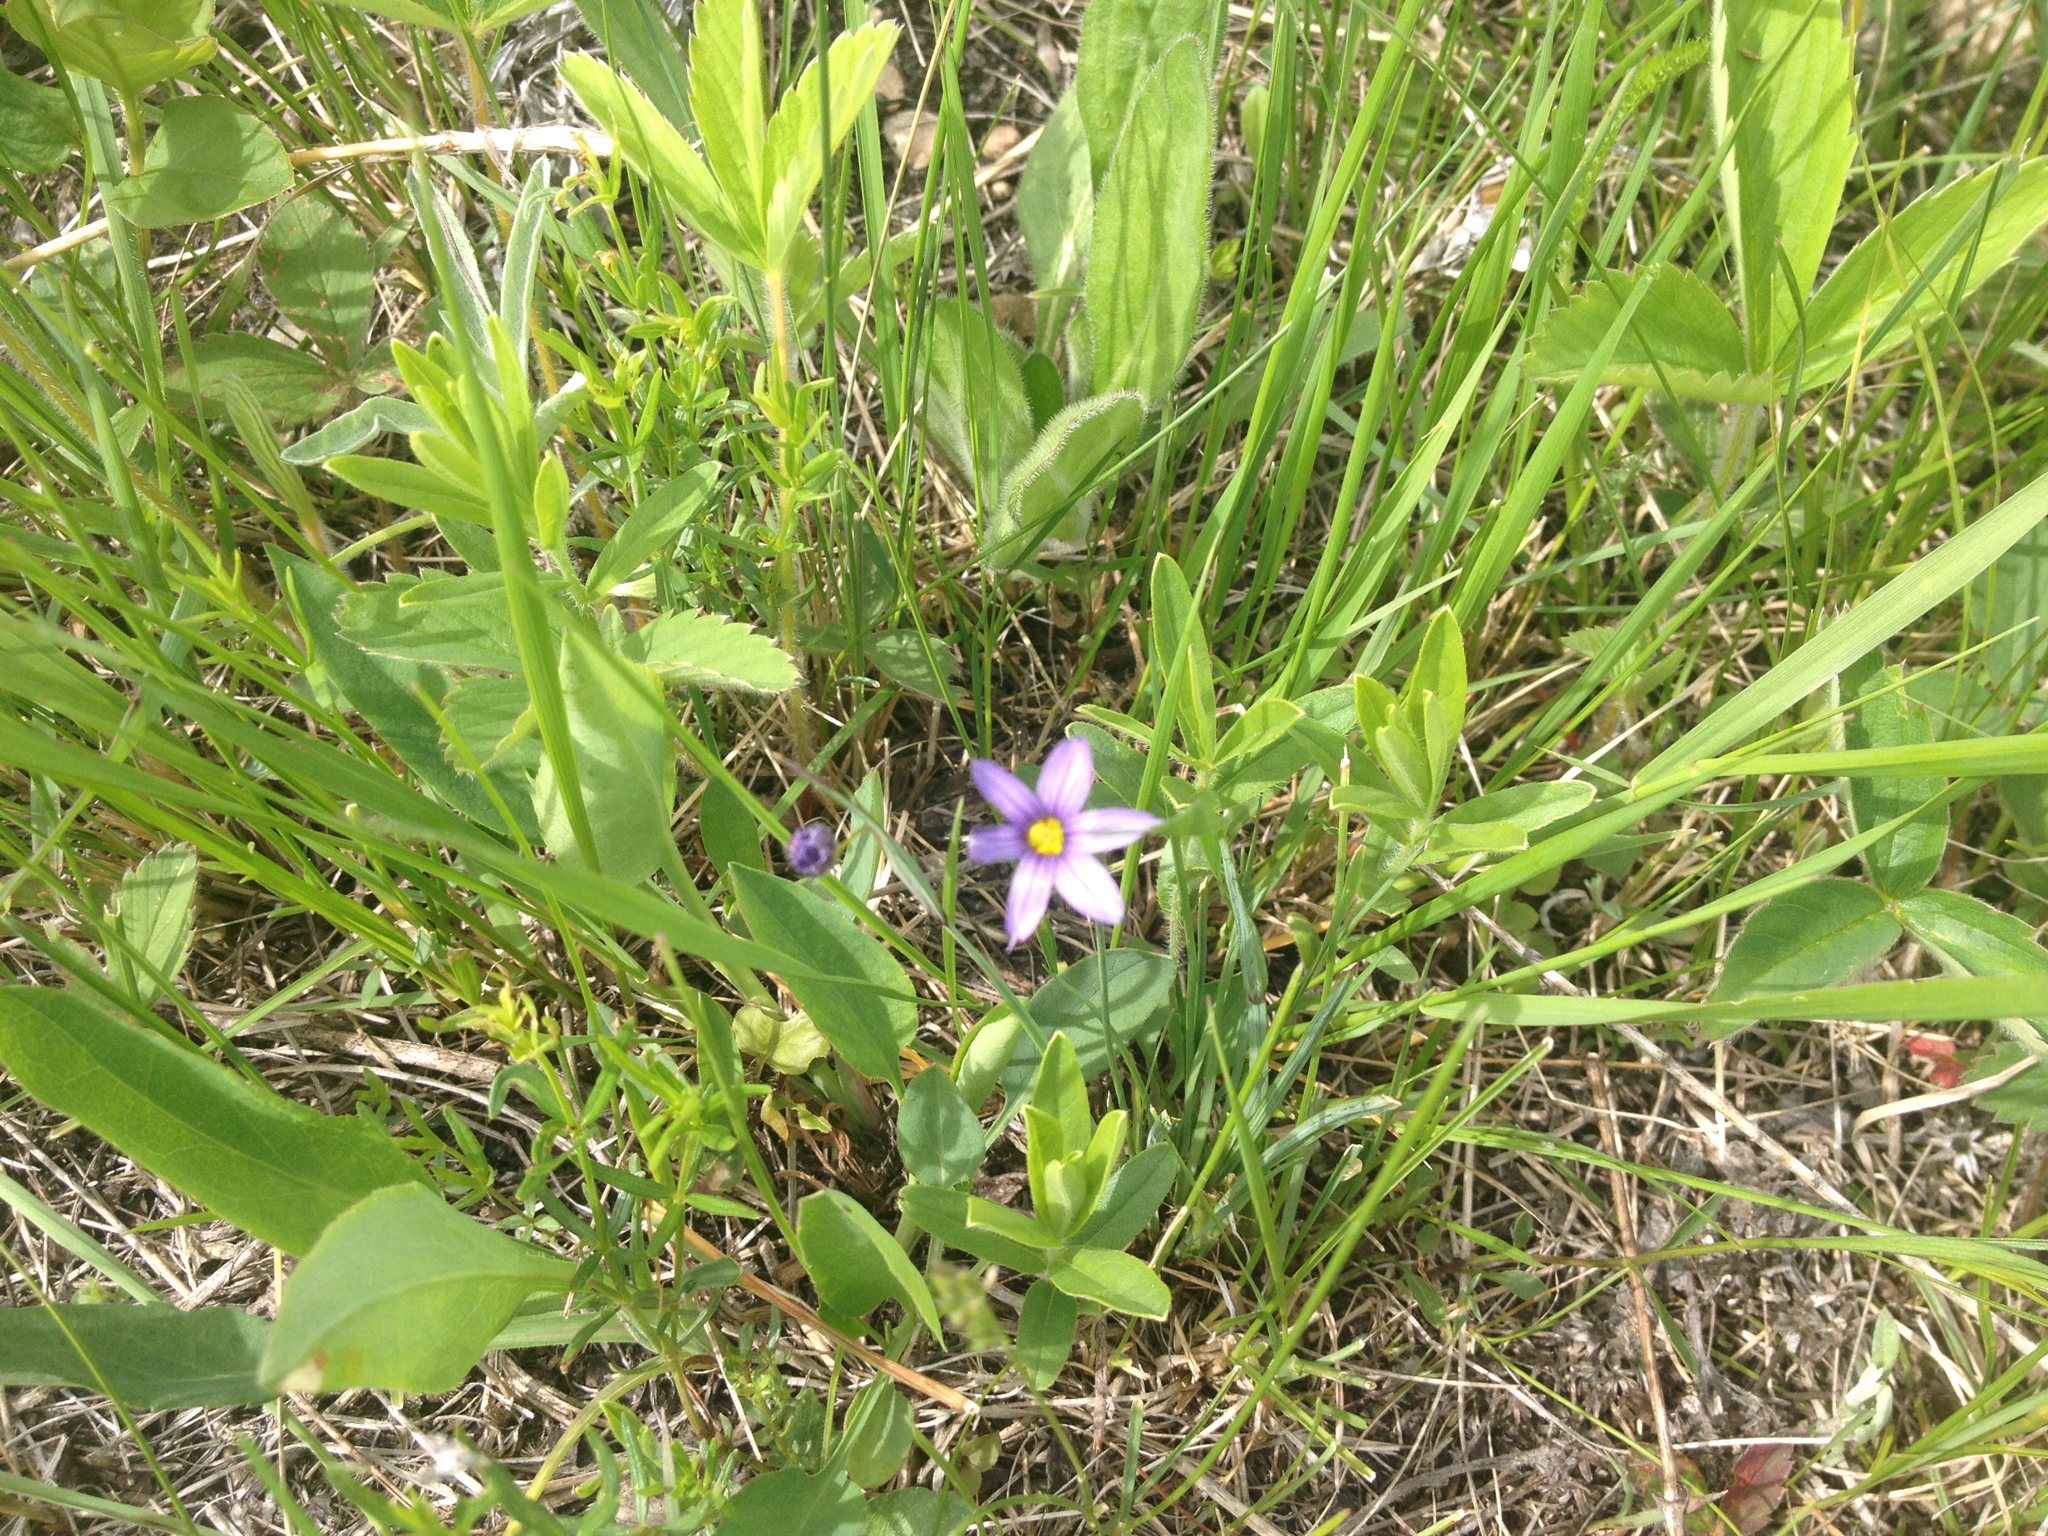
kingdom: Plantae
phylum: Tracheophyta
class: Liliopsida
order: Asparagales
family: Iridaceae
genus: Sisyrinchium
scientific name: Sisyrinchium montanum
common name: American blue-eyed-grass
